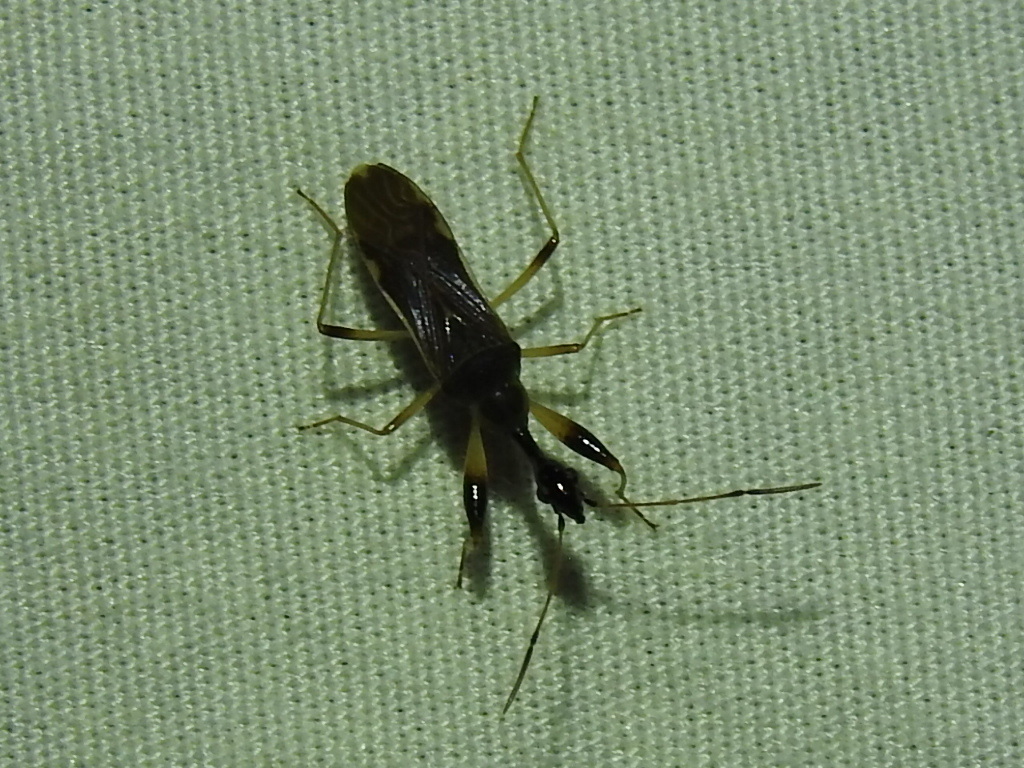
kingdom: Animalia
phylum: Arthropoda
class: Insecta
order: Hemiptera
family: Rhyparochromidae
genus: Myodocha
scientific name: Myodocha serripes
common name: Long-necked seed bug
